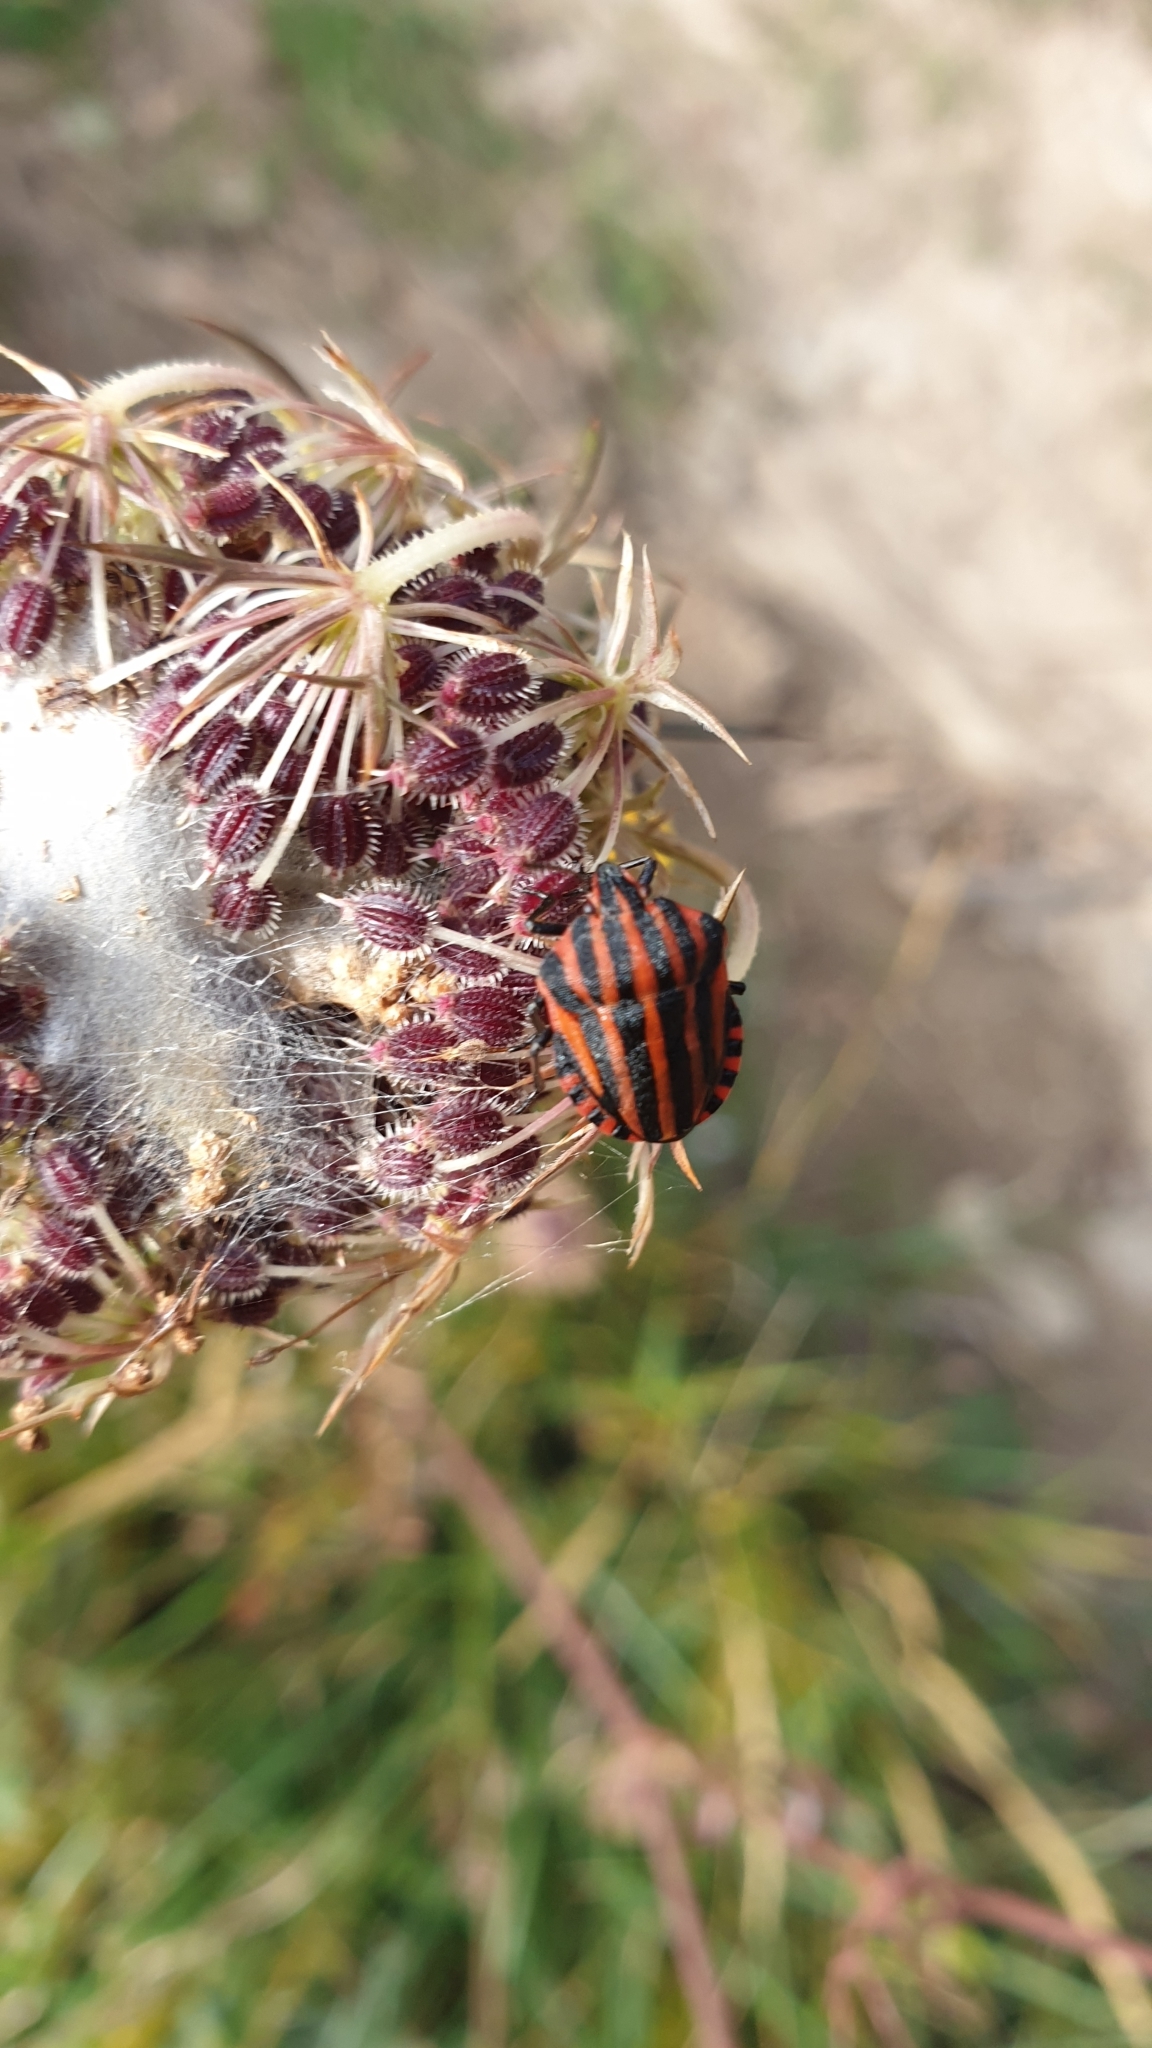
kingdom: Animalia
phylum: Arthropoda
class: Insecta
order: Hemiptera
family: Pentatomidae
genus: Graphosoma
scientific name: Graphosoma italicum
